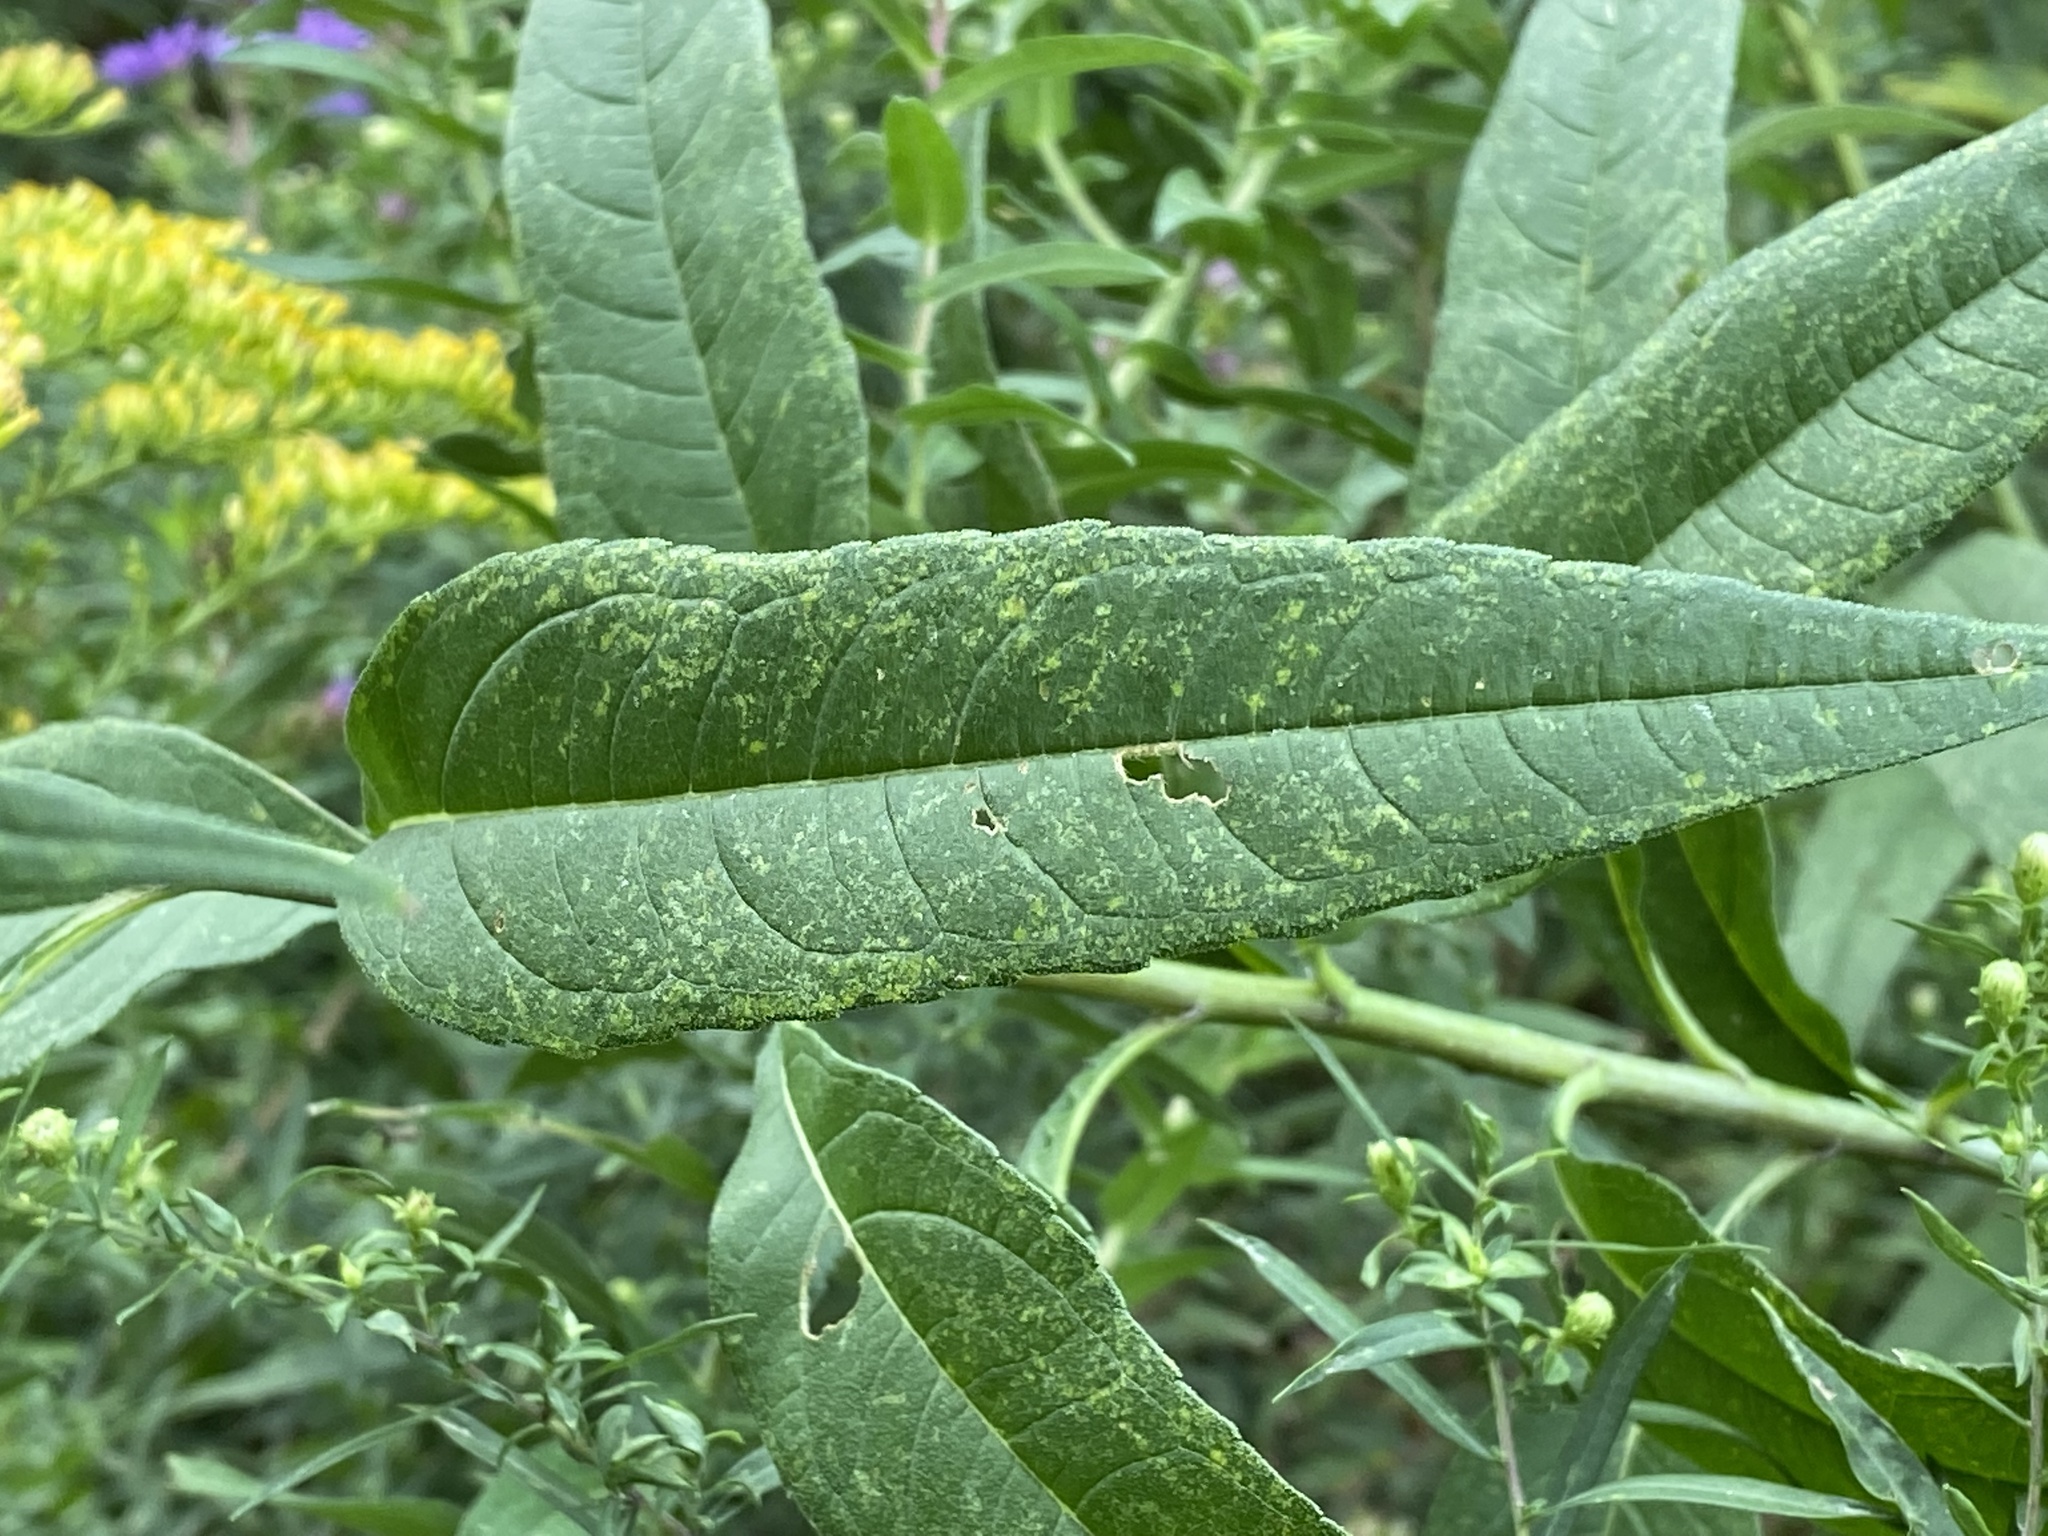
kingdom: Plantae
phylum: Tracheophyta
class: Magnoliopsida
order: Asterales
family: Asteraceae
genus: Helianthus
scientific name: Helianthus giganteus
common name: Giant sunflower
